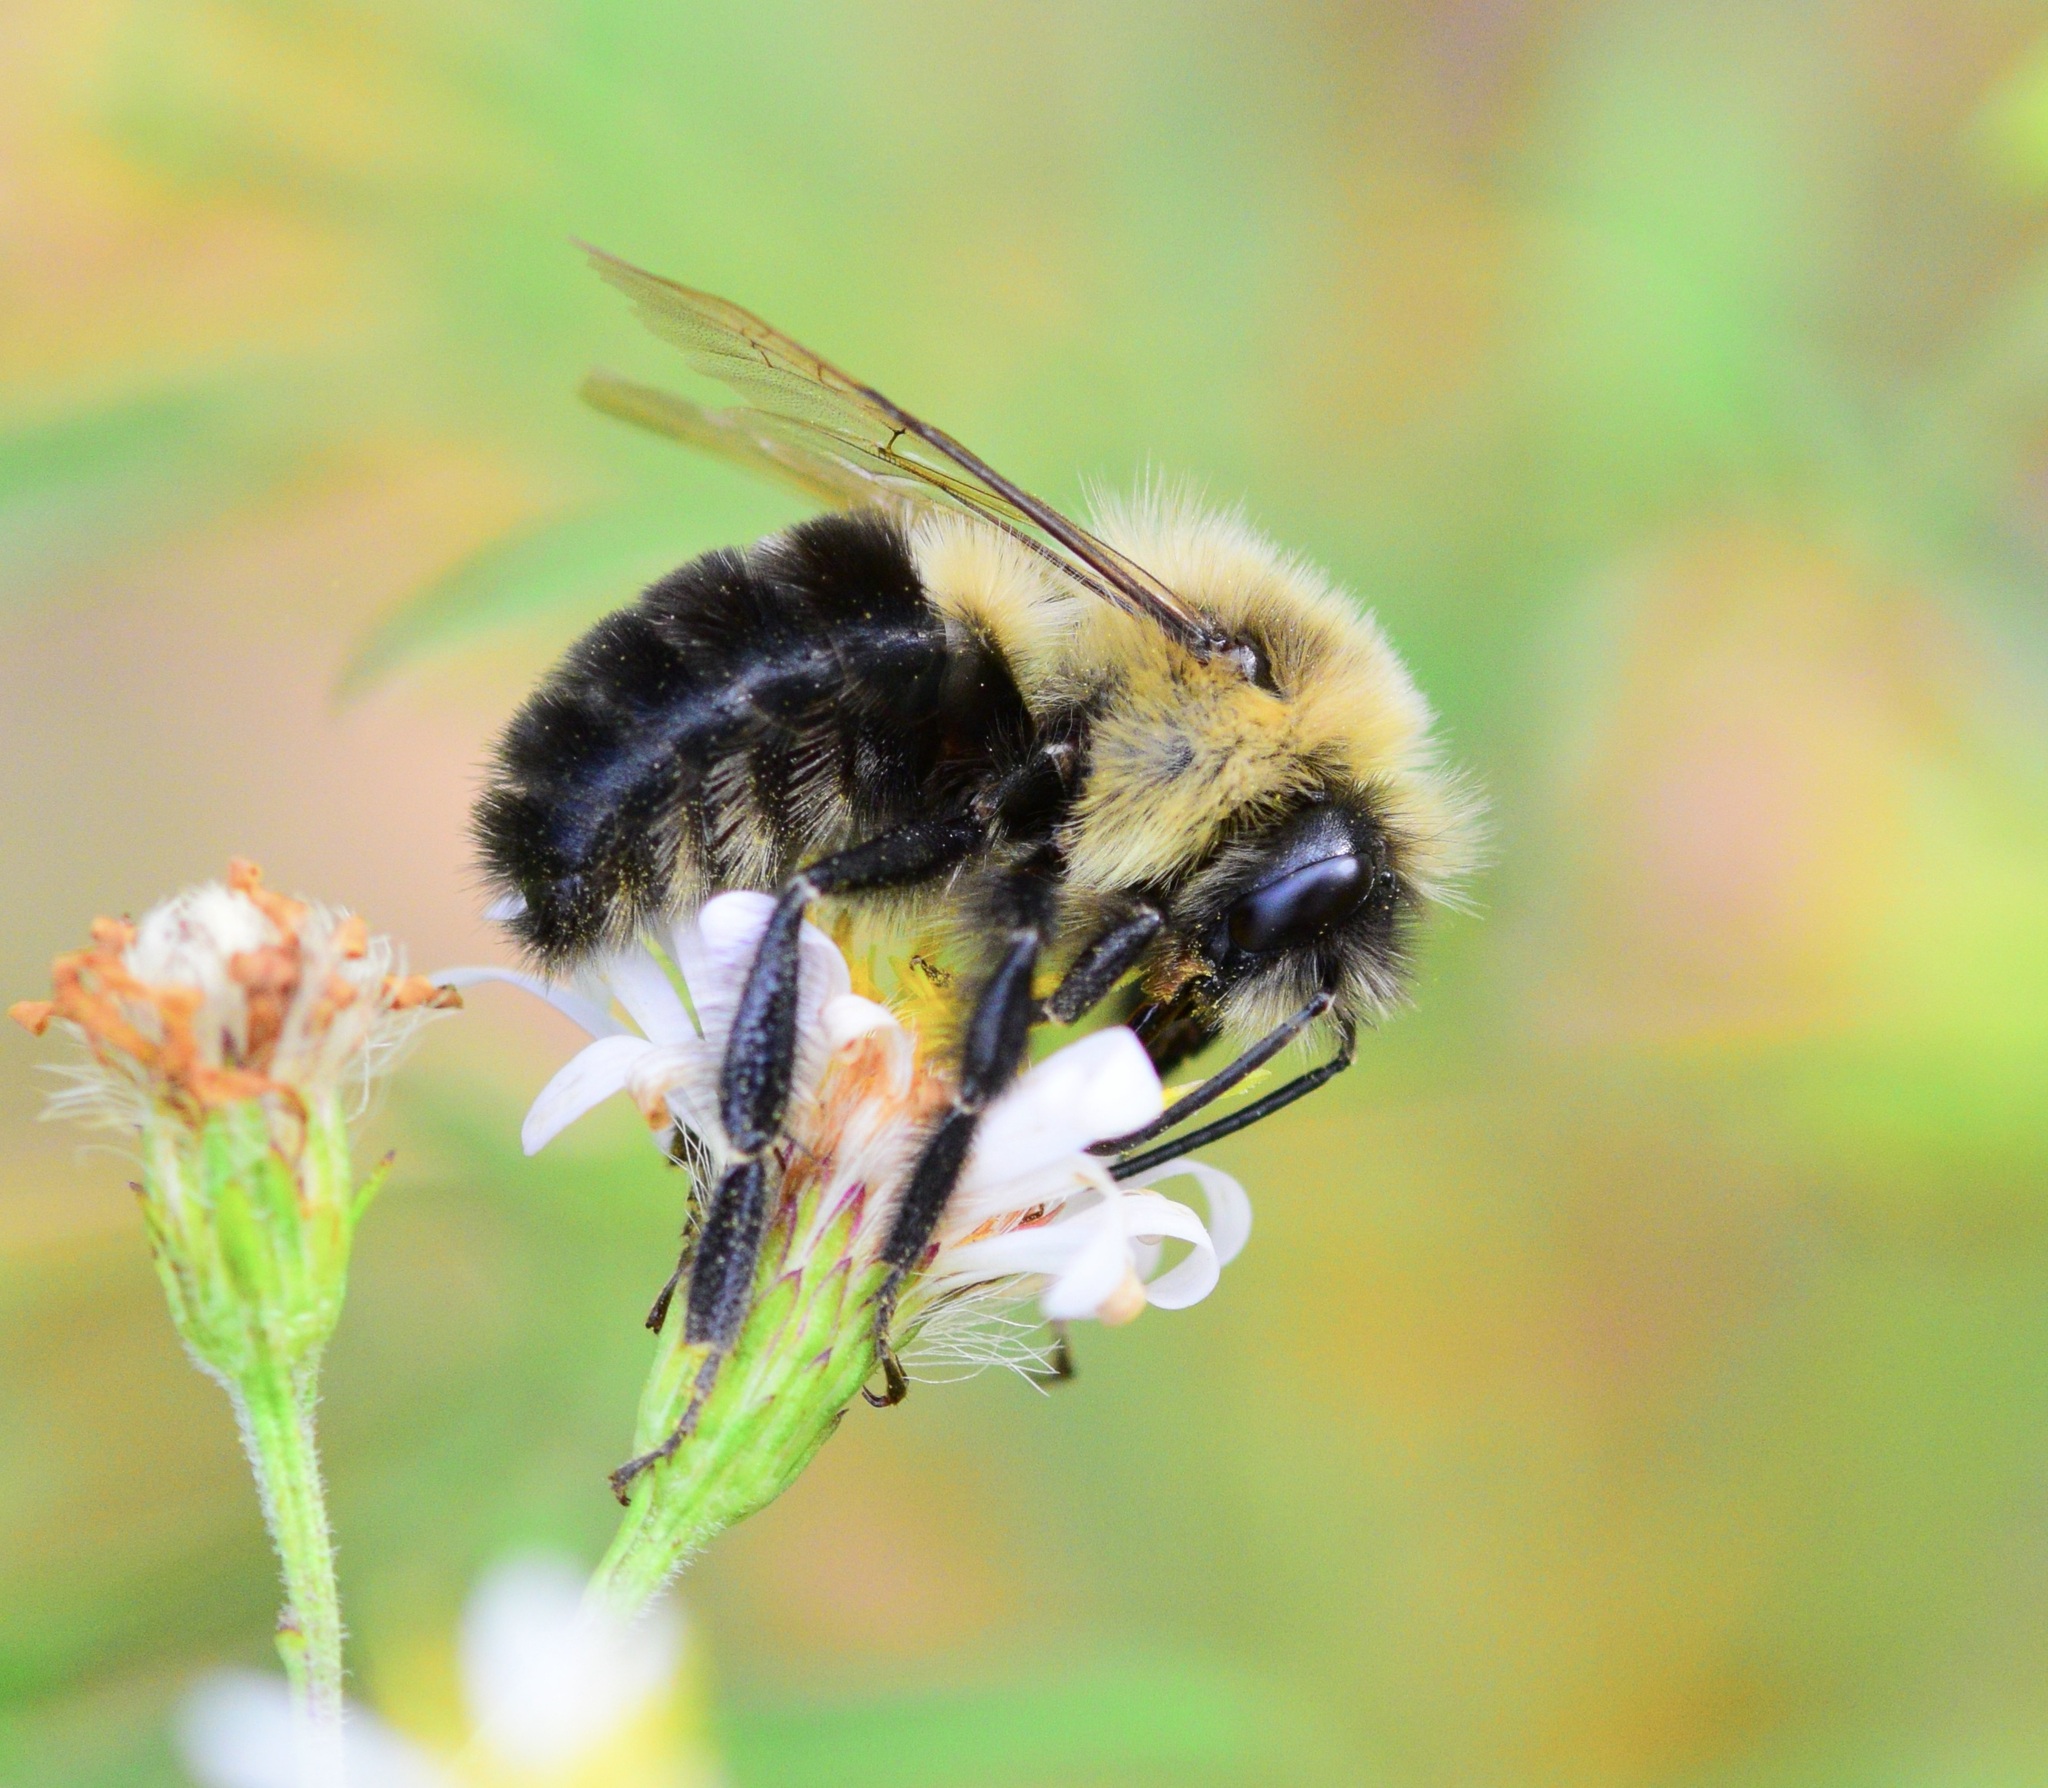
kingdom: Animalia
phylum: Arthropoda
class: Insecta
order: Hymenoptera
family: Apidae
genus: Bombus
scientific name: Bombus impatiens
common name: Common eastern bumble bee
